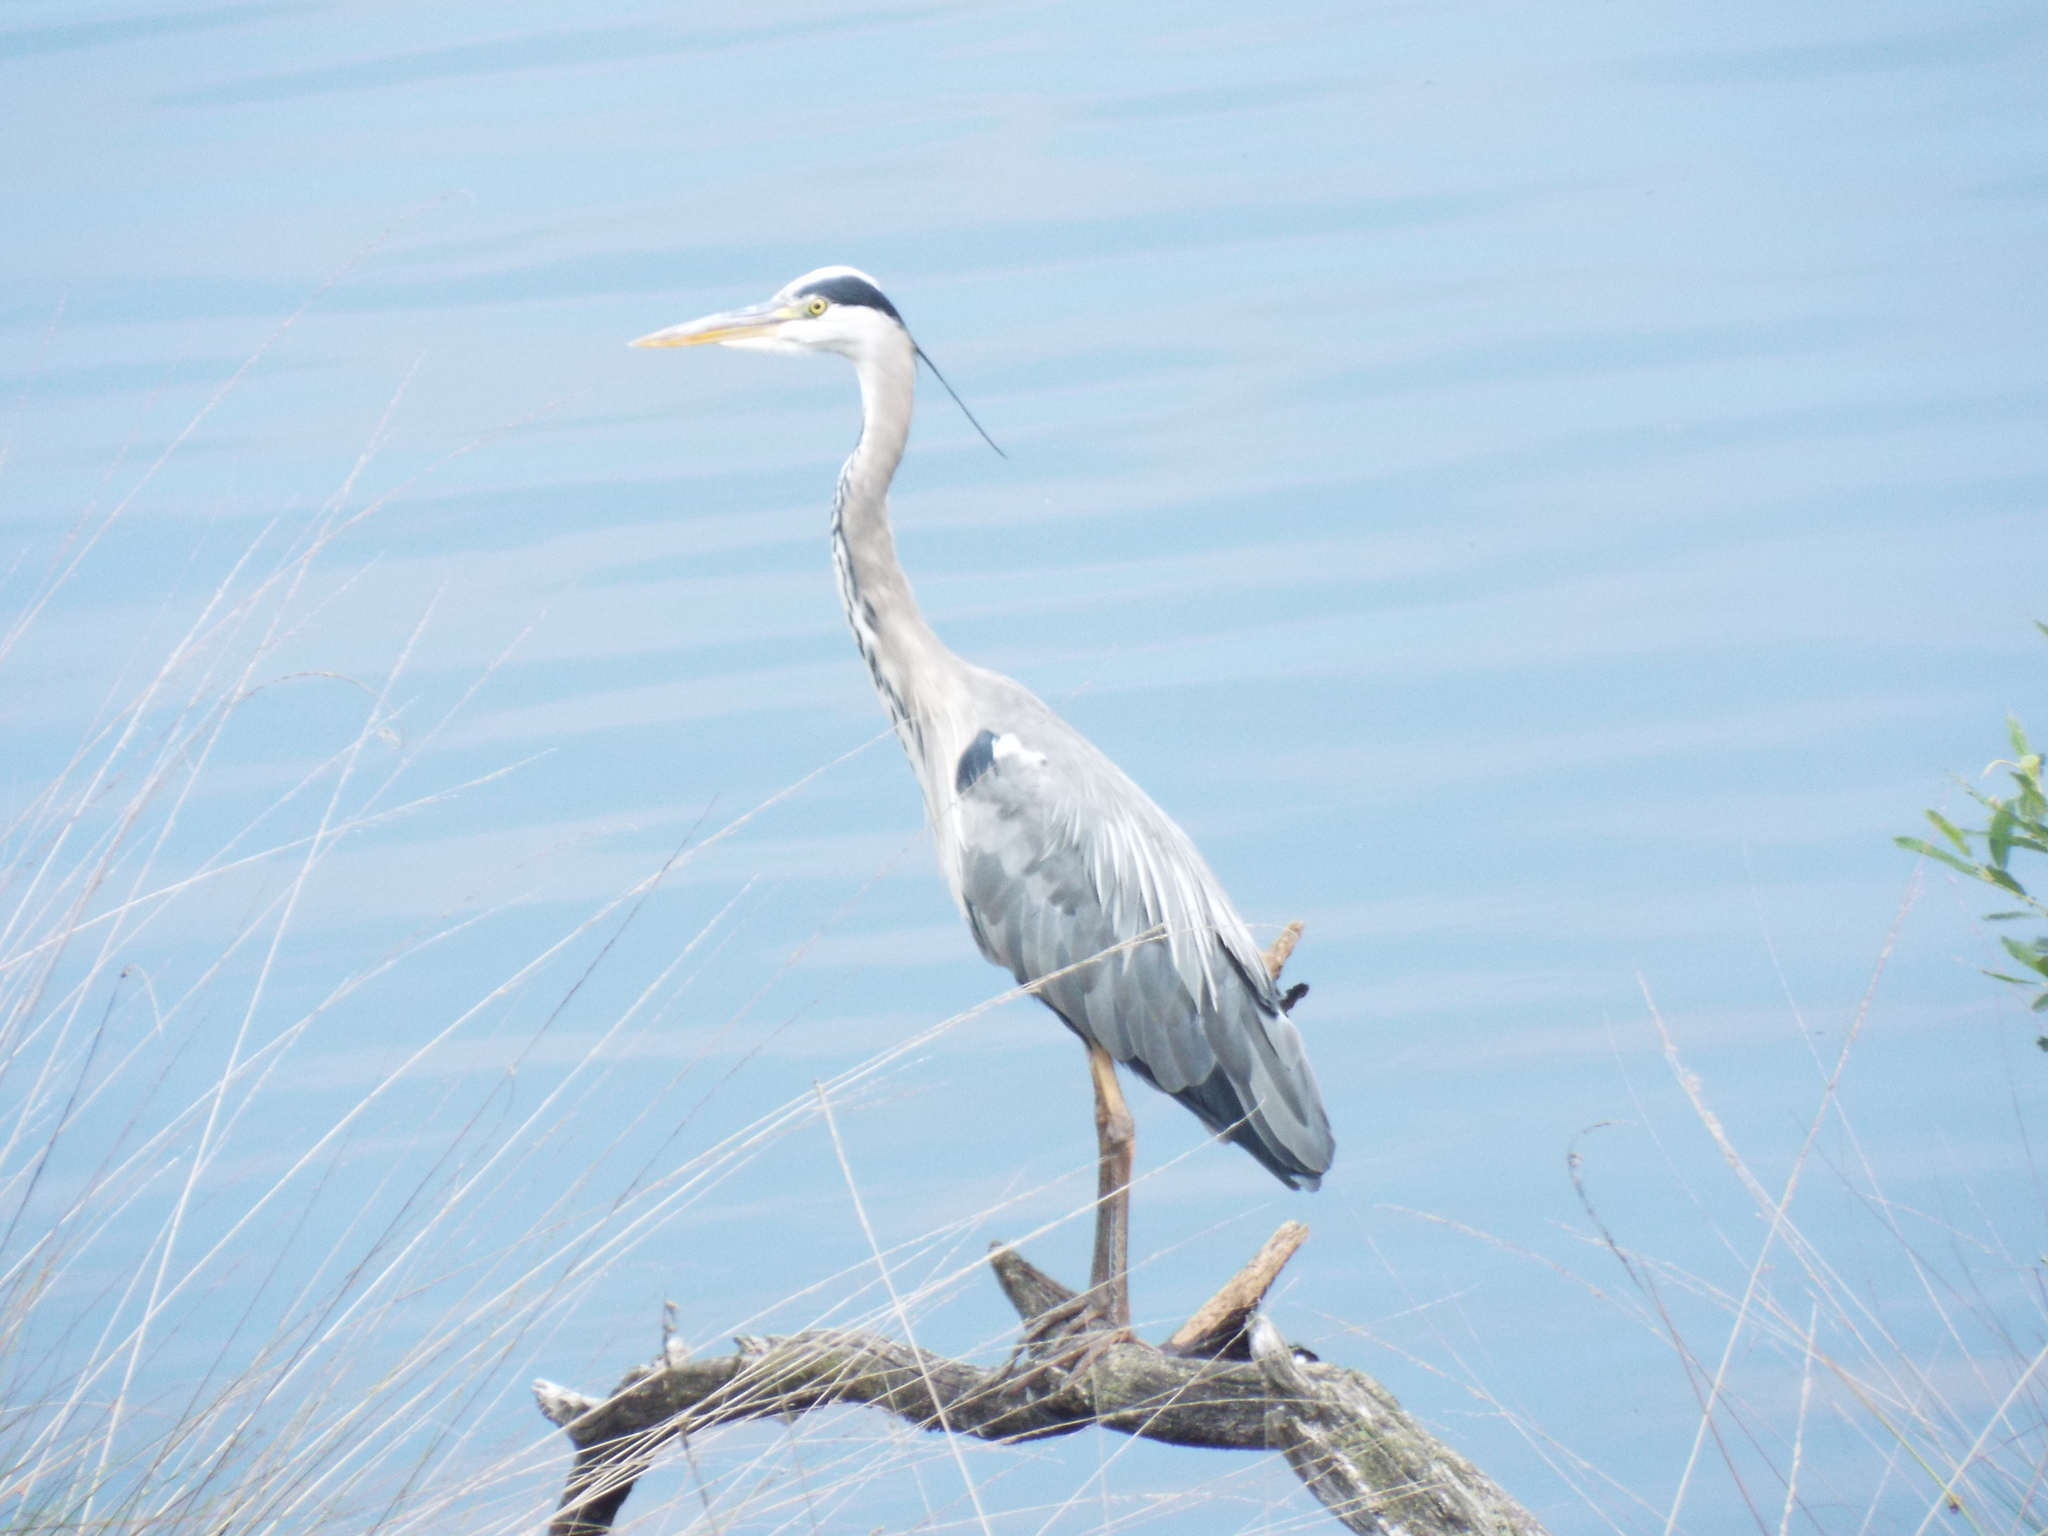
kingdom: Animalia
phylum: Chordata
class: Aves
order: Pelecaniformes
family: Ardeidae
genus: Ardea
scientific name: Ardea cinerea
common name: Grey heron
